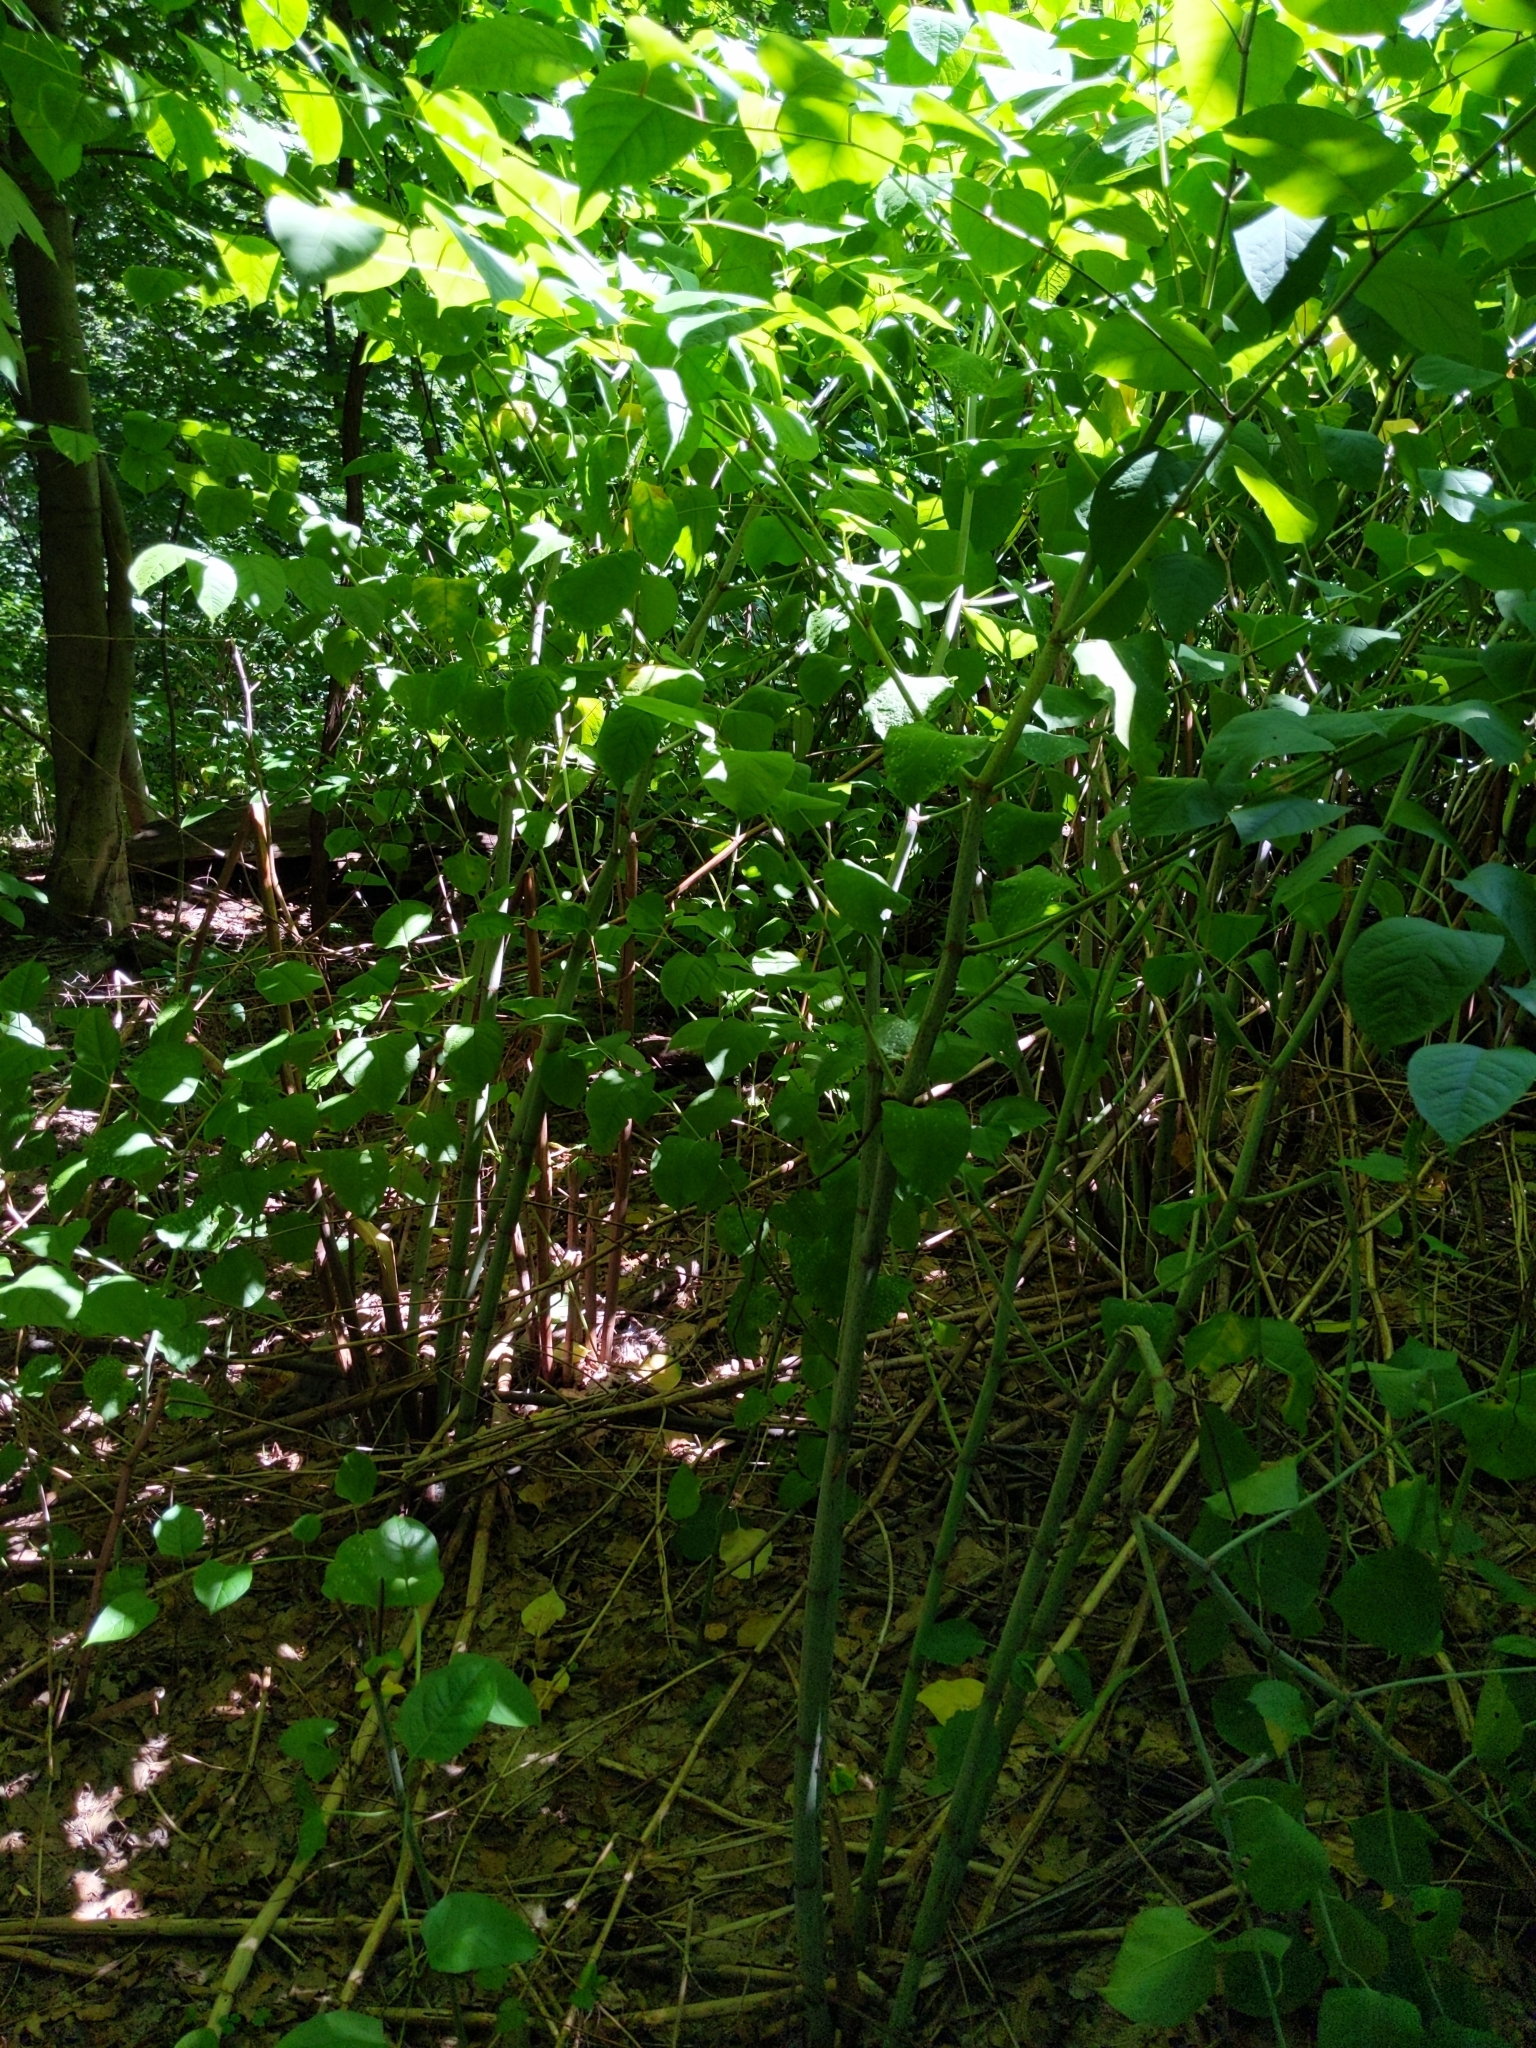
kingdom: Plantae
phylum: Tracheophyta
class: Magnoliopsida
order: Caryophyllales
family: Polygonaceae
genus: Reynoutria
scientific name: Reynoutria japonica
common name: Japanese knotweed
